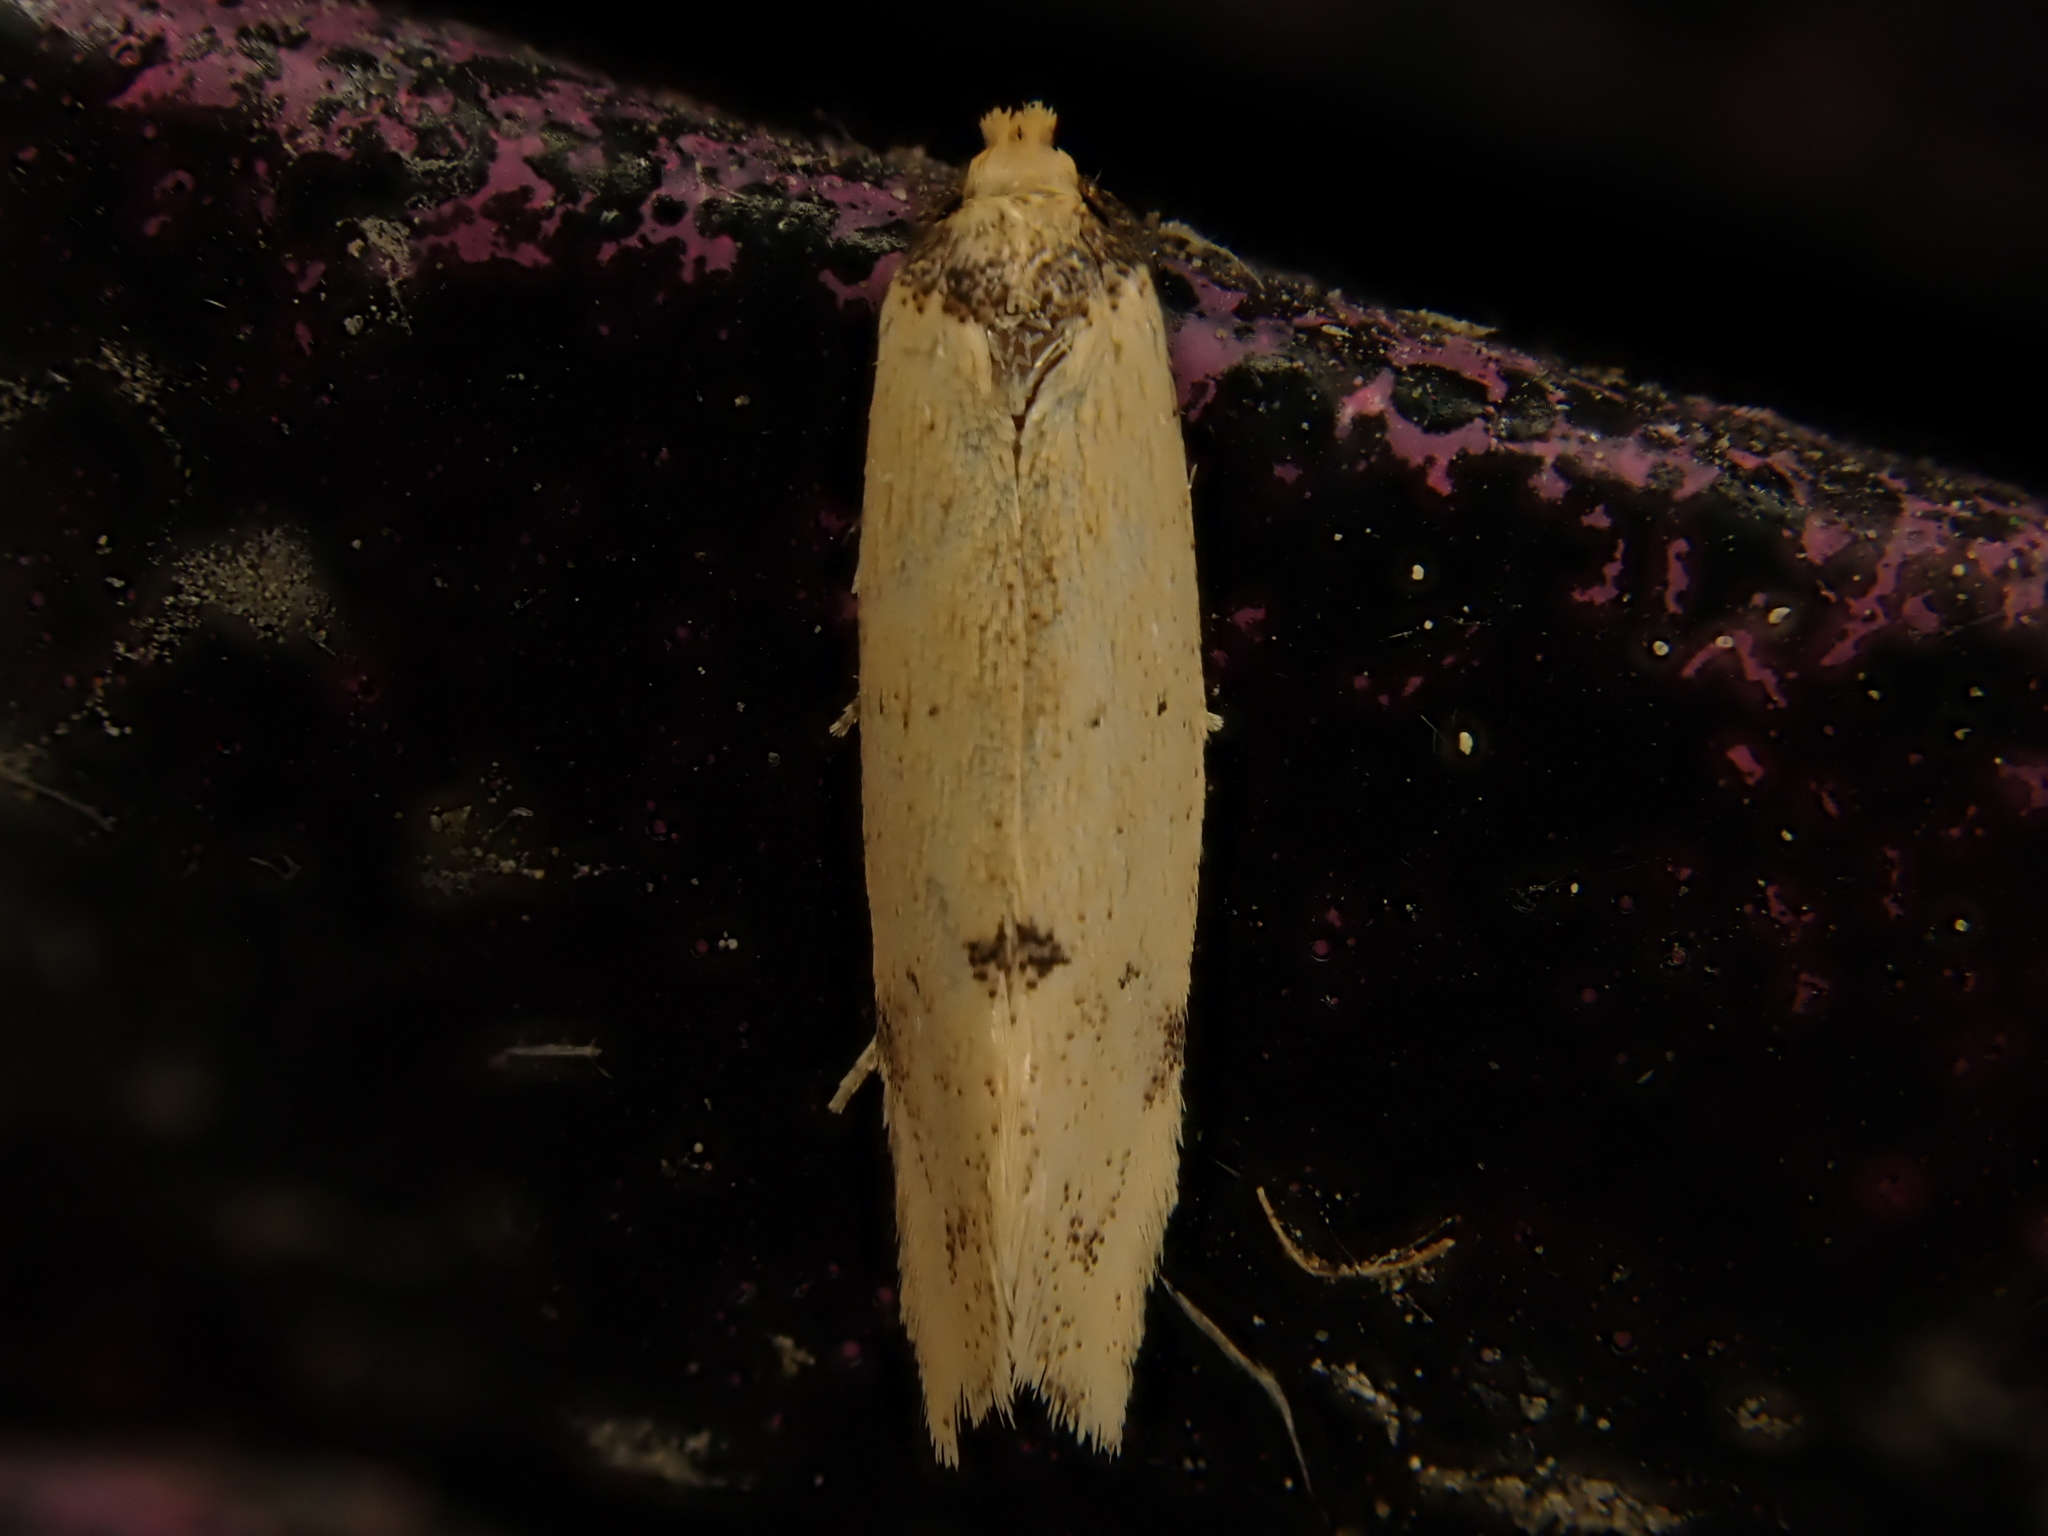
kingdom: Animalia
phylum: Arthropoda
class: Insecta
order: Lepidoptera
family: Oecophoridae
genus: Atalopsis
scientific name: Atalopsis
